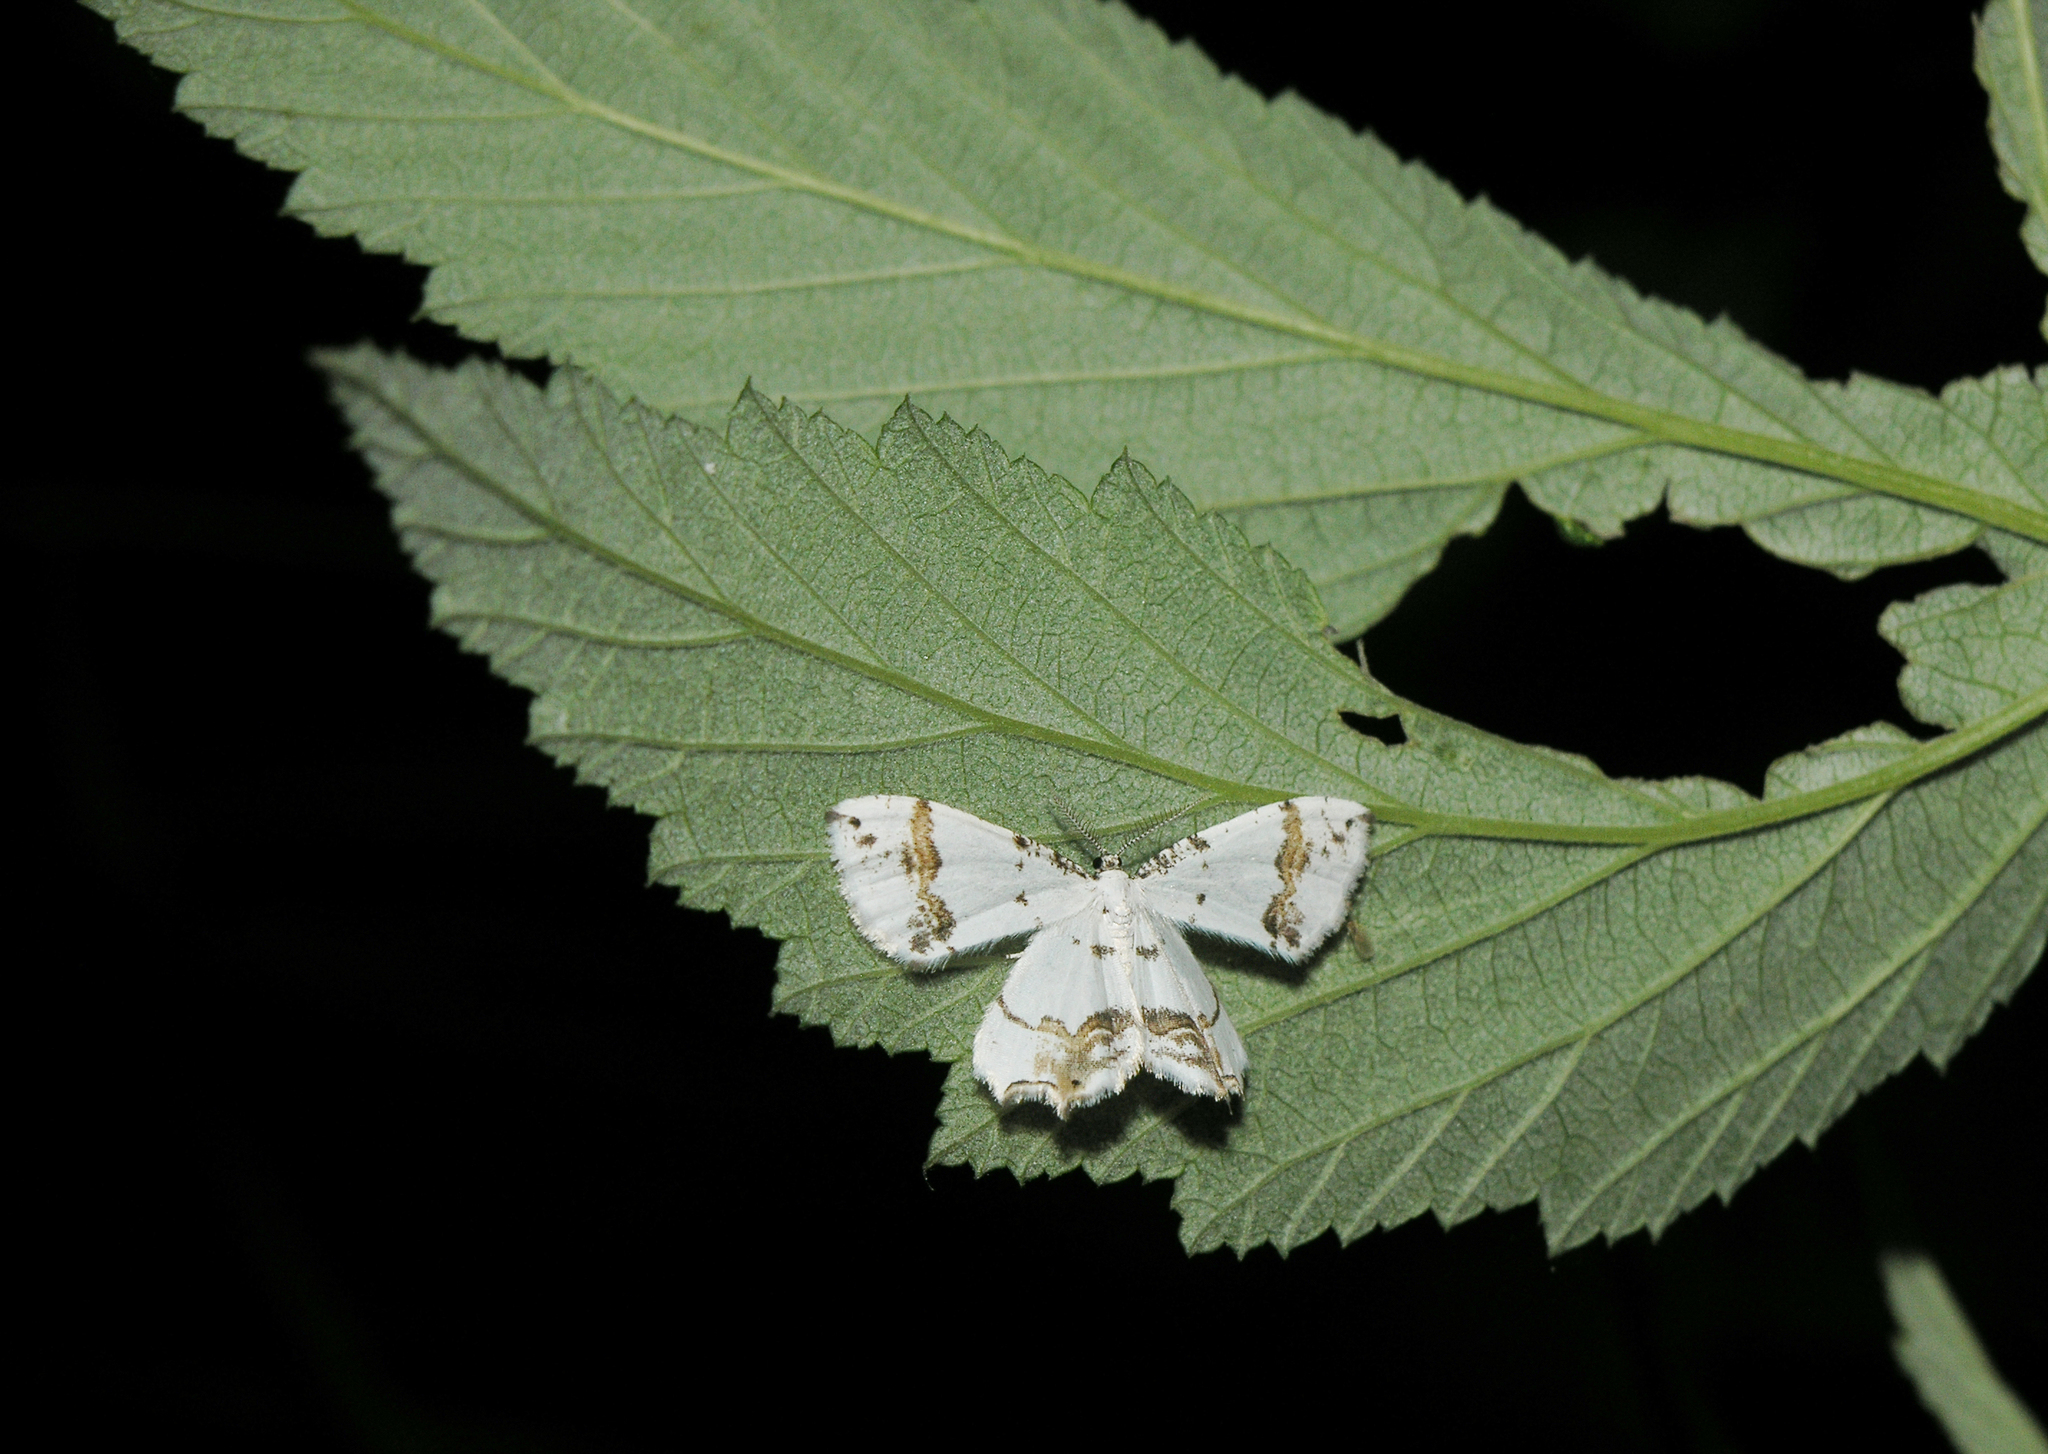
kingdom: Animalia
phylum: Arthropoda
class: Insecta
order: Lepidoptera
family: Uraniidae
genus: Epiplema
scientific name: Epiplema Eversmannia exornata
